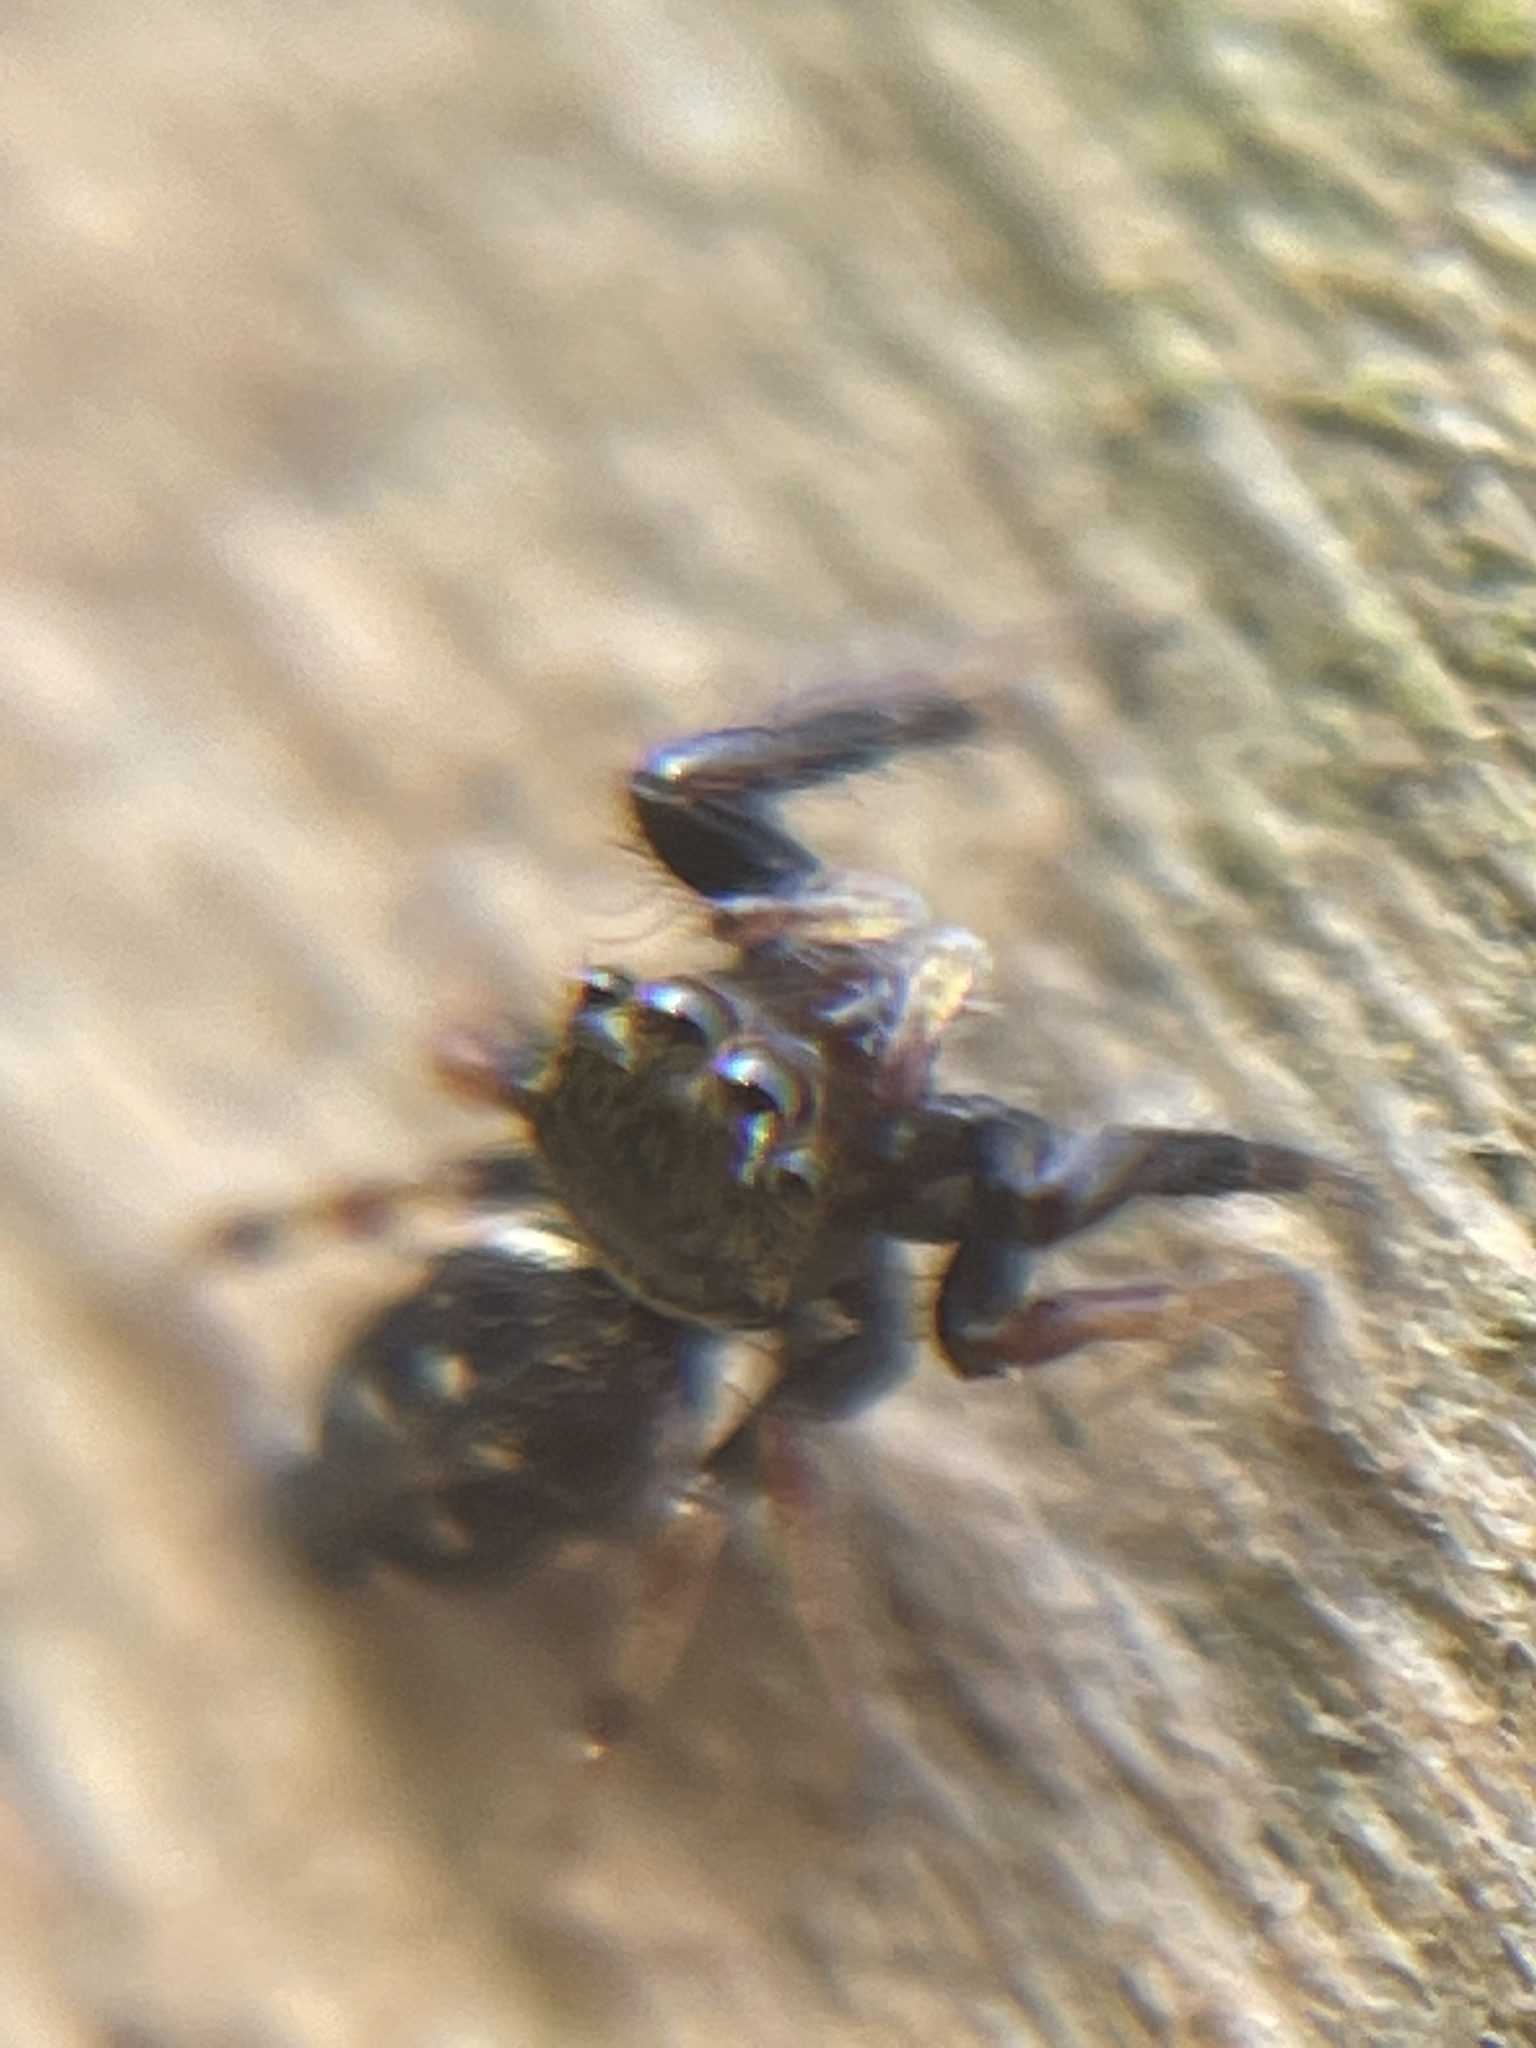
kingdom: Animalia
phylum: Arthropoda
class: Arachnida
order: Araneae
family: Salticidae
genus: Paraphidippus
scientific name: Paraphidippus aurantius
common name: Jumping spiders
